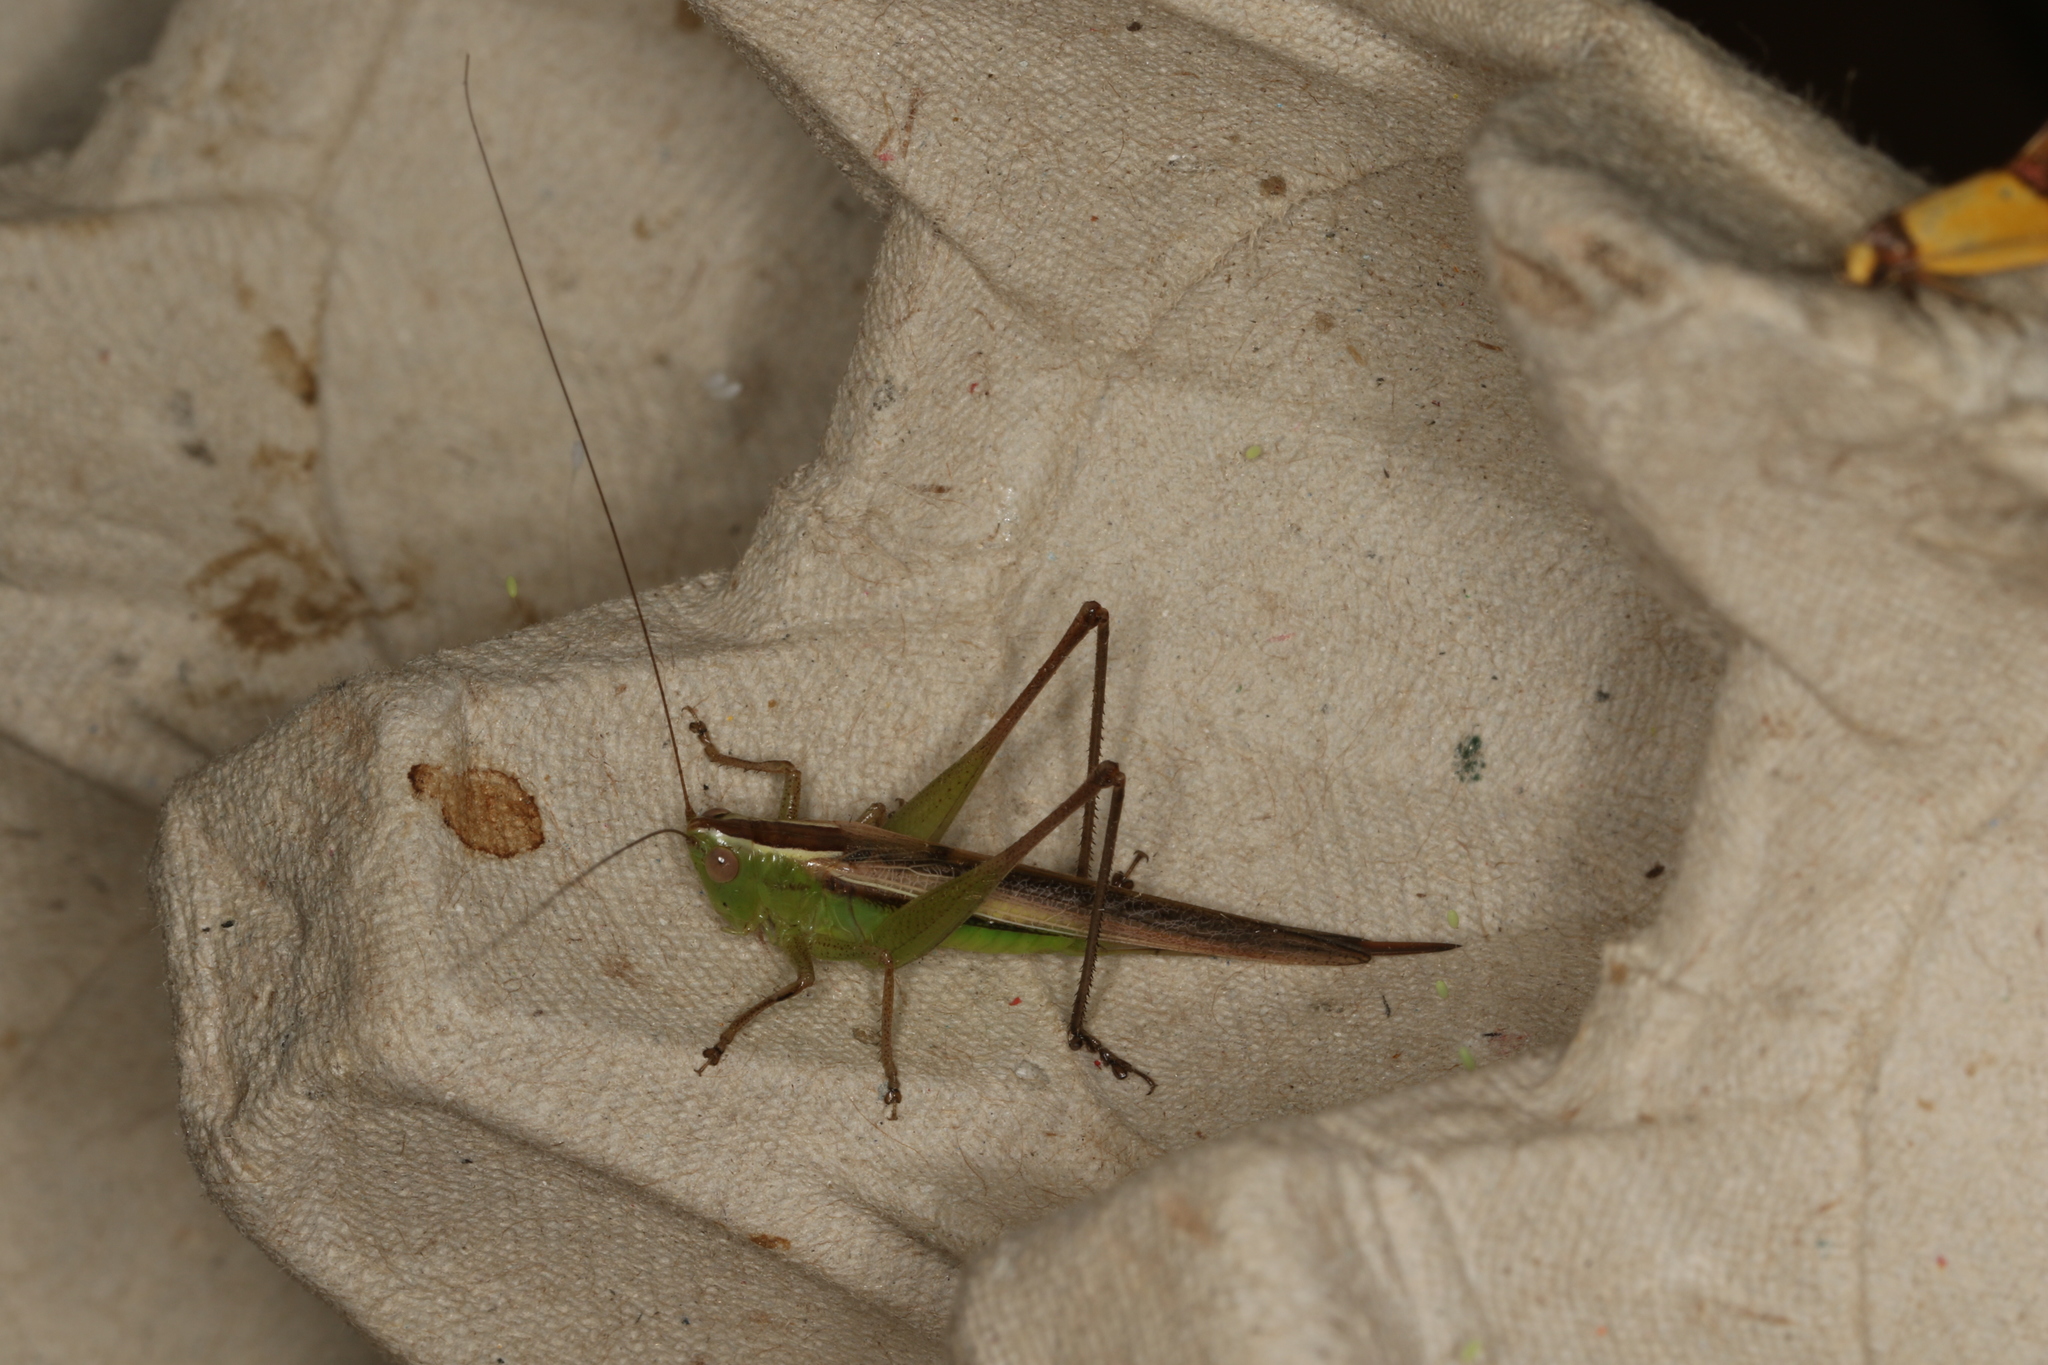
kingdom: Animalia
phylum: Arthropoda
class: Insecta
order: Orthoptera
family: Tettigoniidae
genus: Conocephalus
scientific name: Conocephalus albescens
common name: Whitish meadow katydid
